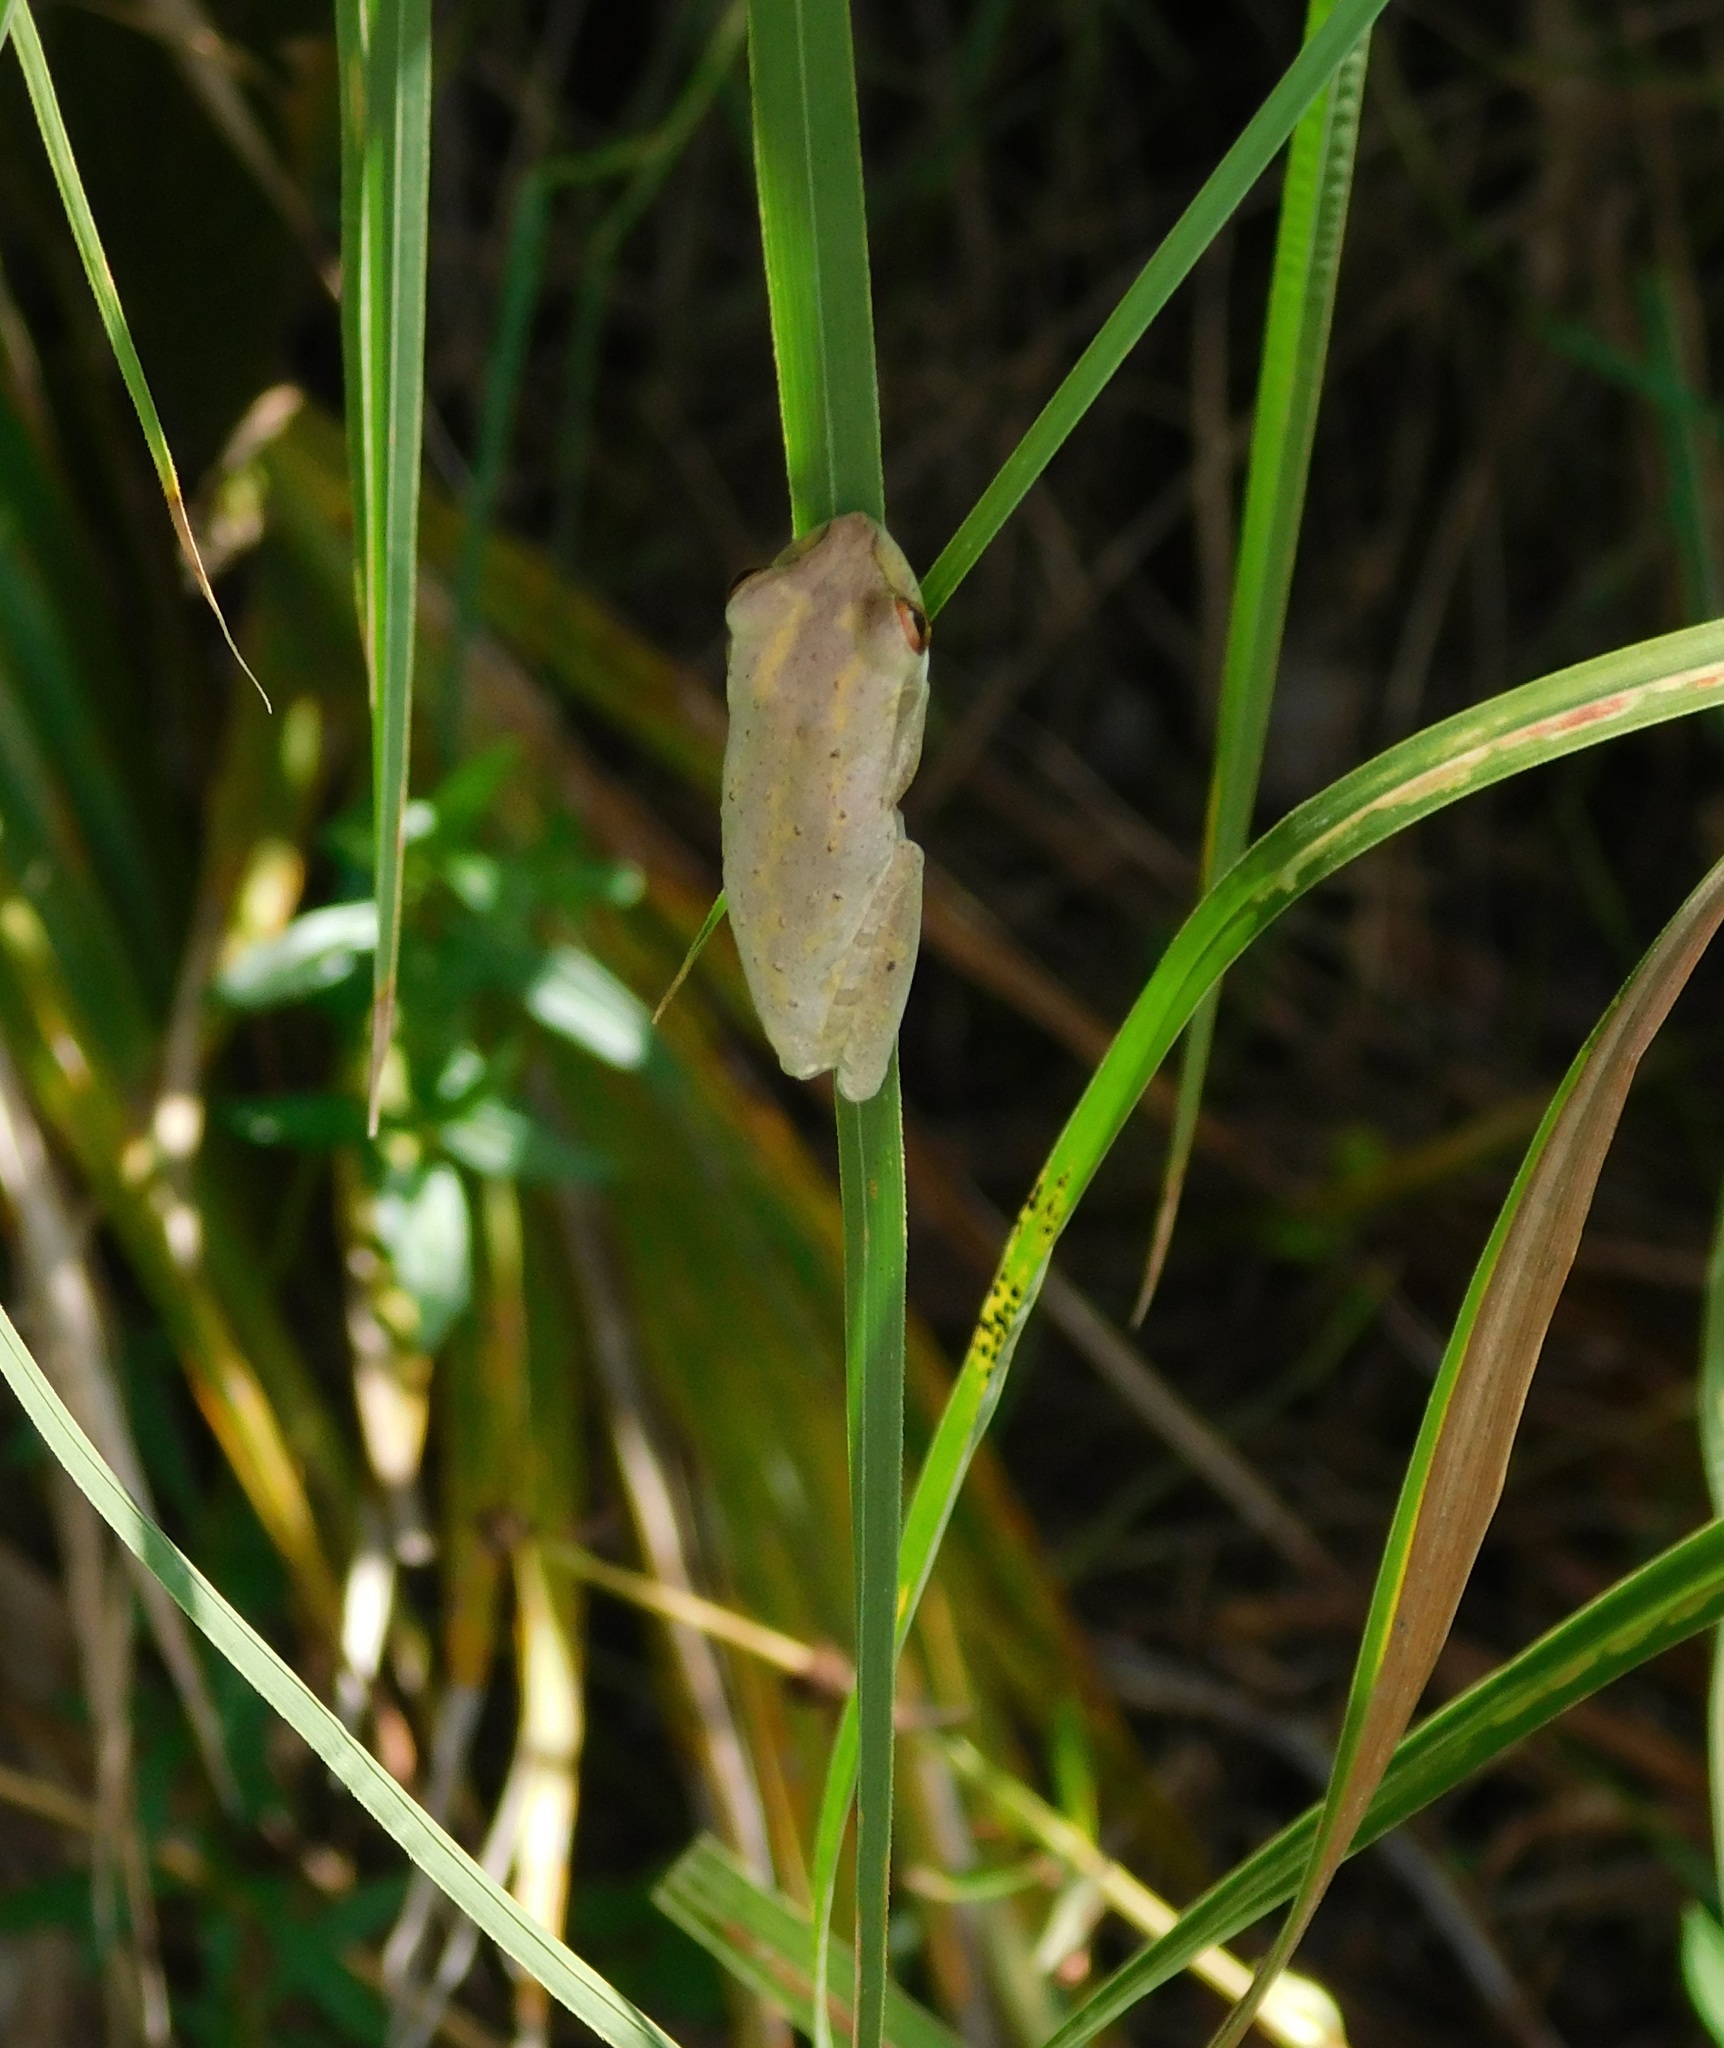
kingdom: Animalia
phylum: Chordata
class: Amphibia
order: Anura
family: Hylidae
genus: Osteopilus
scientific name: Osteopilus septentrionalis
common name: Cuban treefrog
